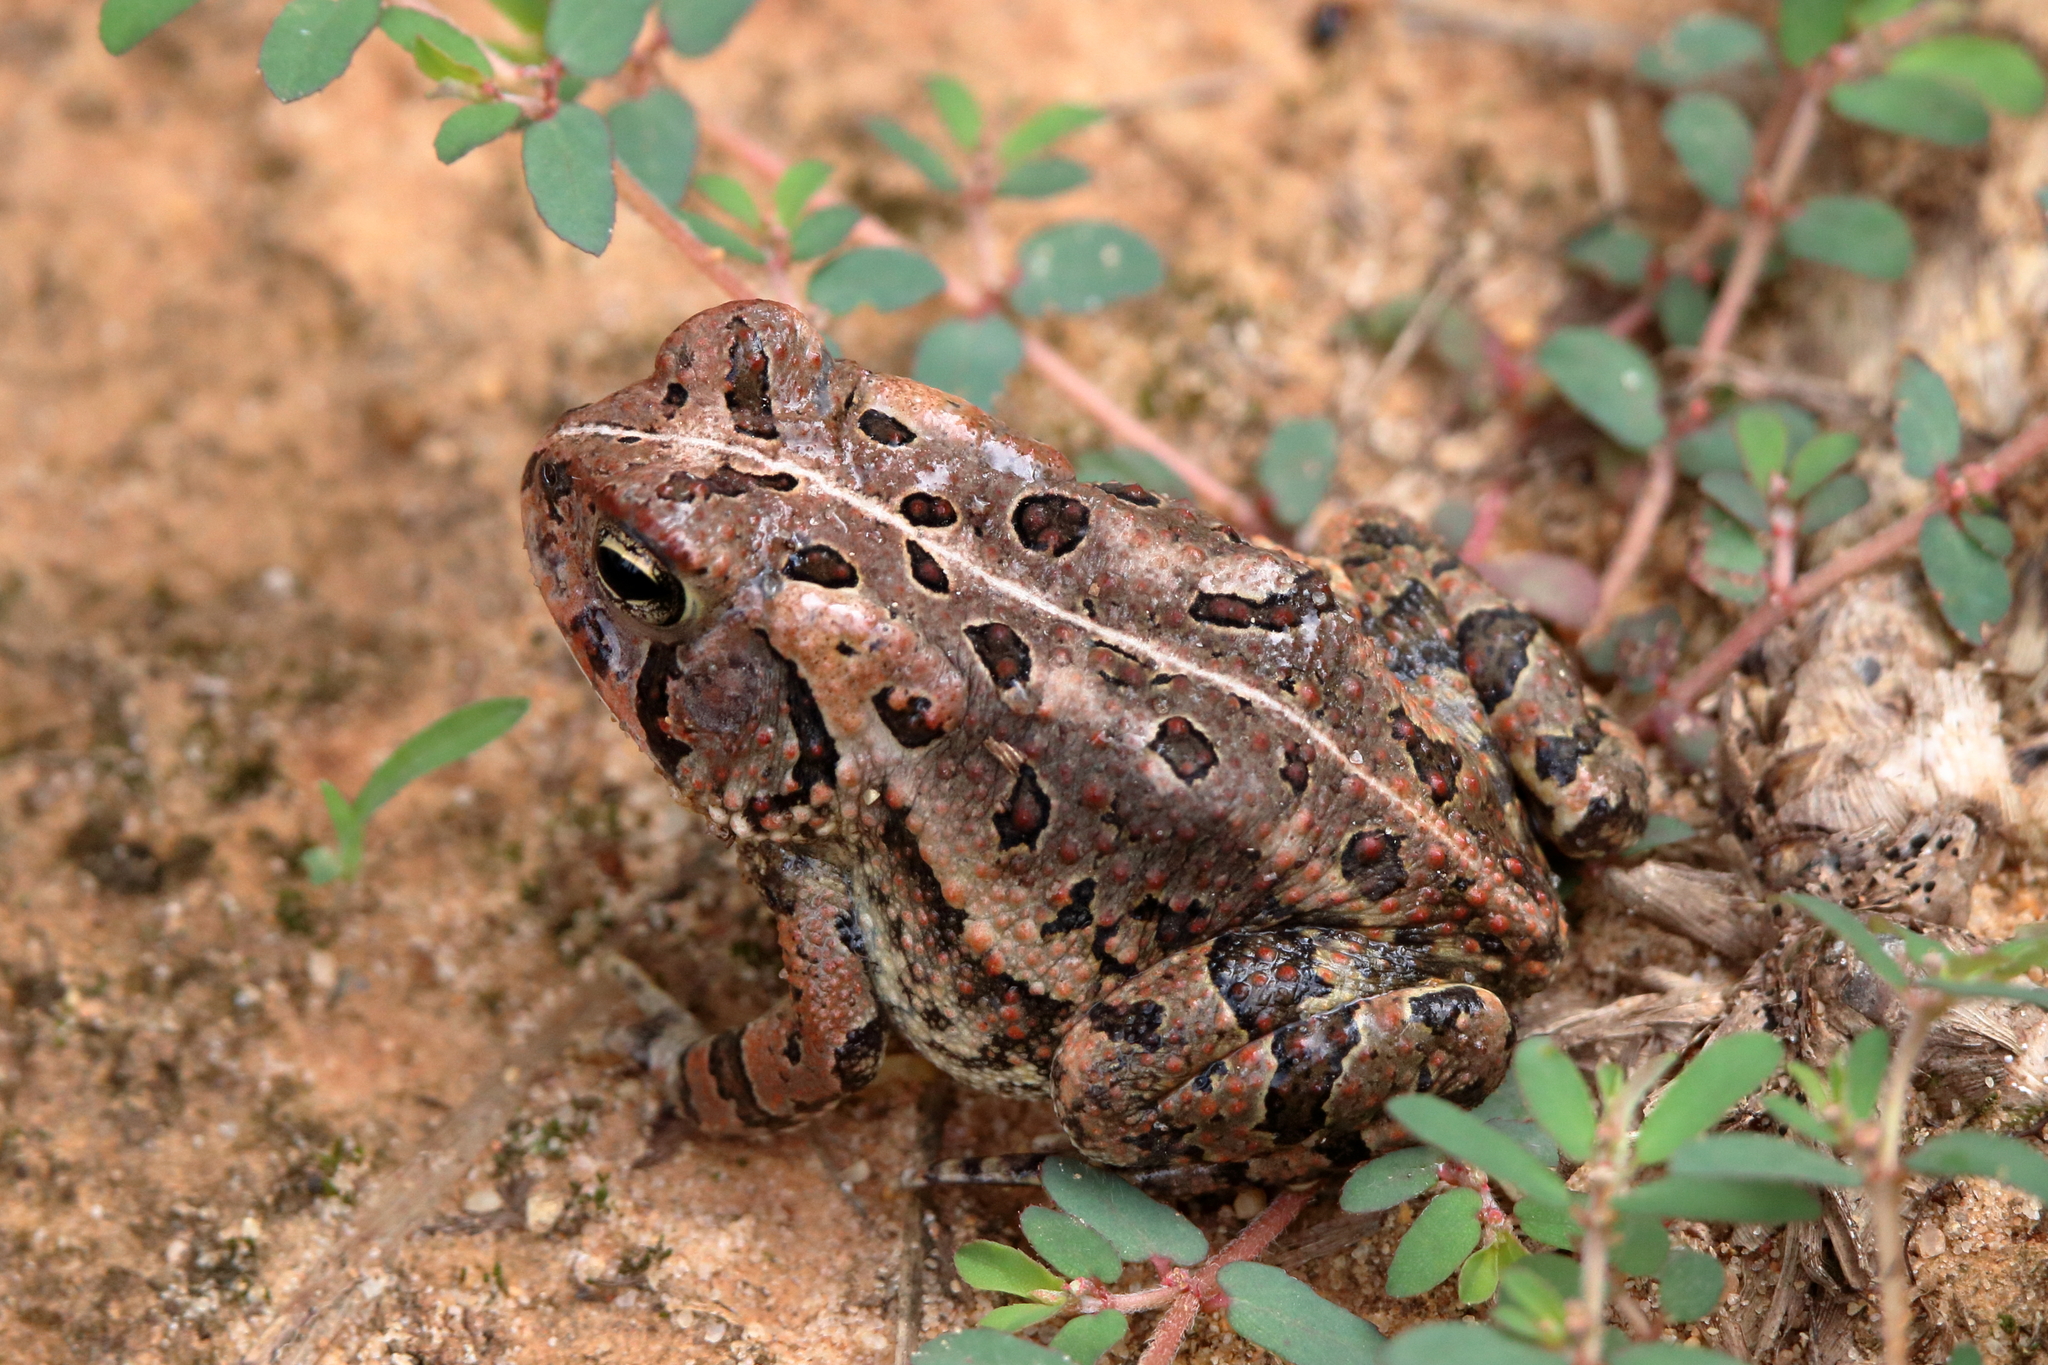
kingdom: Animalia
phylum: Chordata
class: Amphibia
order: Anura
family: Bufonidae
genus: Anaxyrus
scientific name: Anaxyrus fowleri
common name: Fowler's toad
